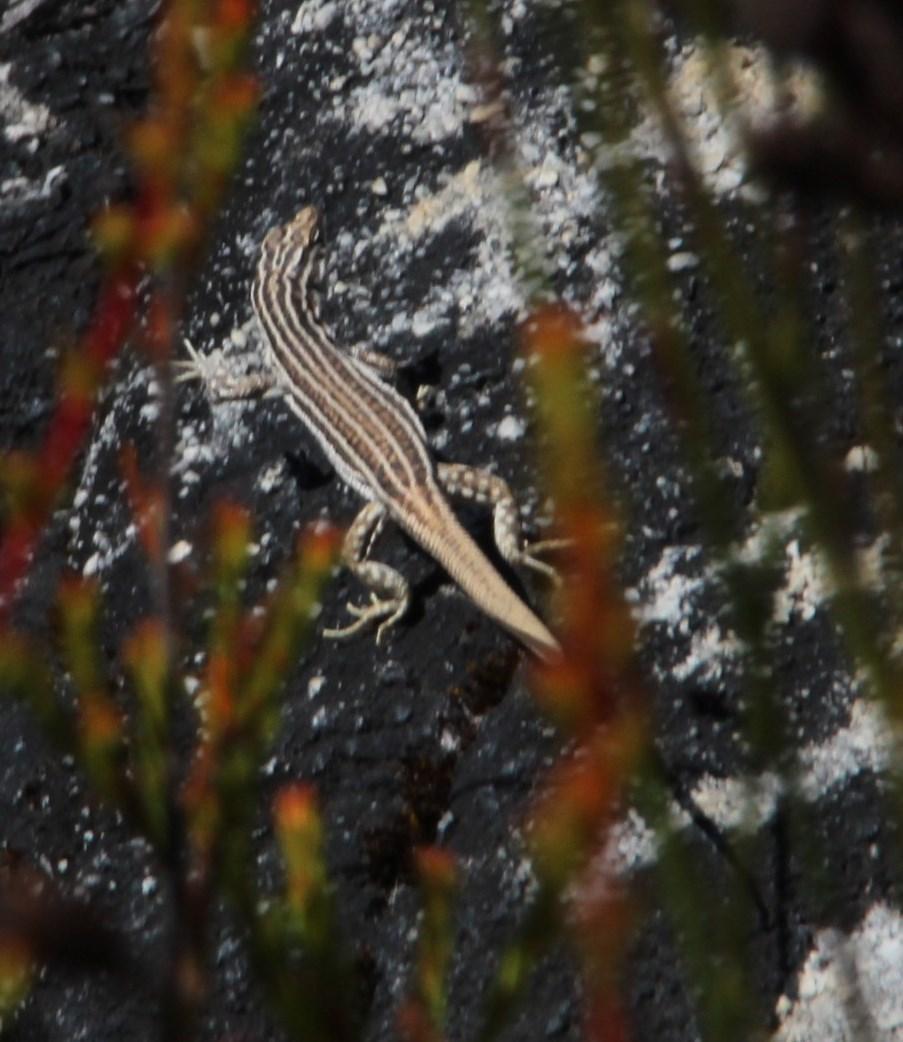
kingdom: Animalia
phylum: Chordata
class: Squamata
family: Lacertidae
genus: Pedioplanis
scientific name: Pedioplanis burchelli
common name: Burchell's sand lizard
